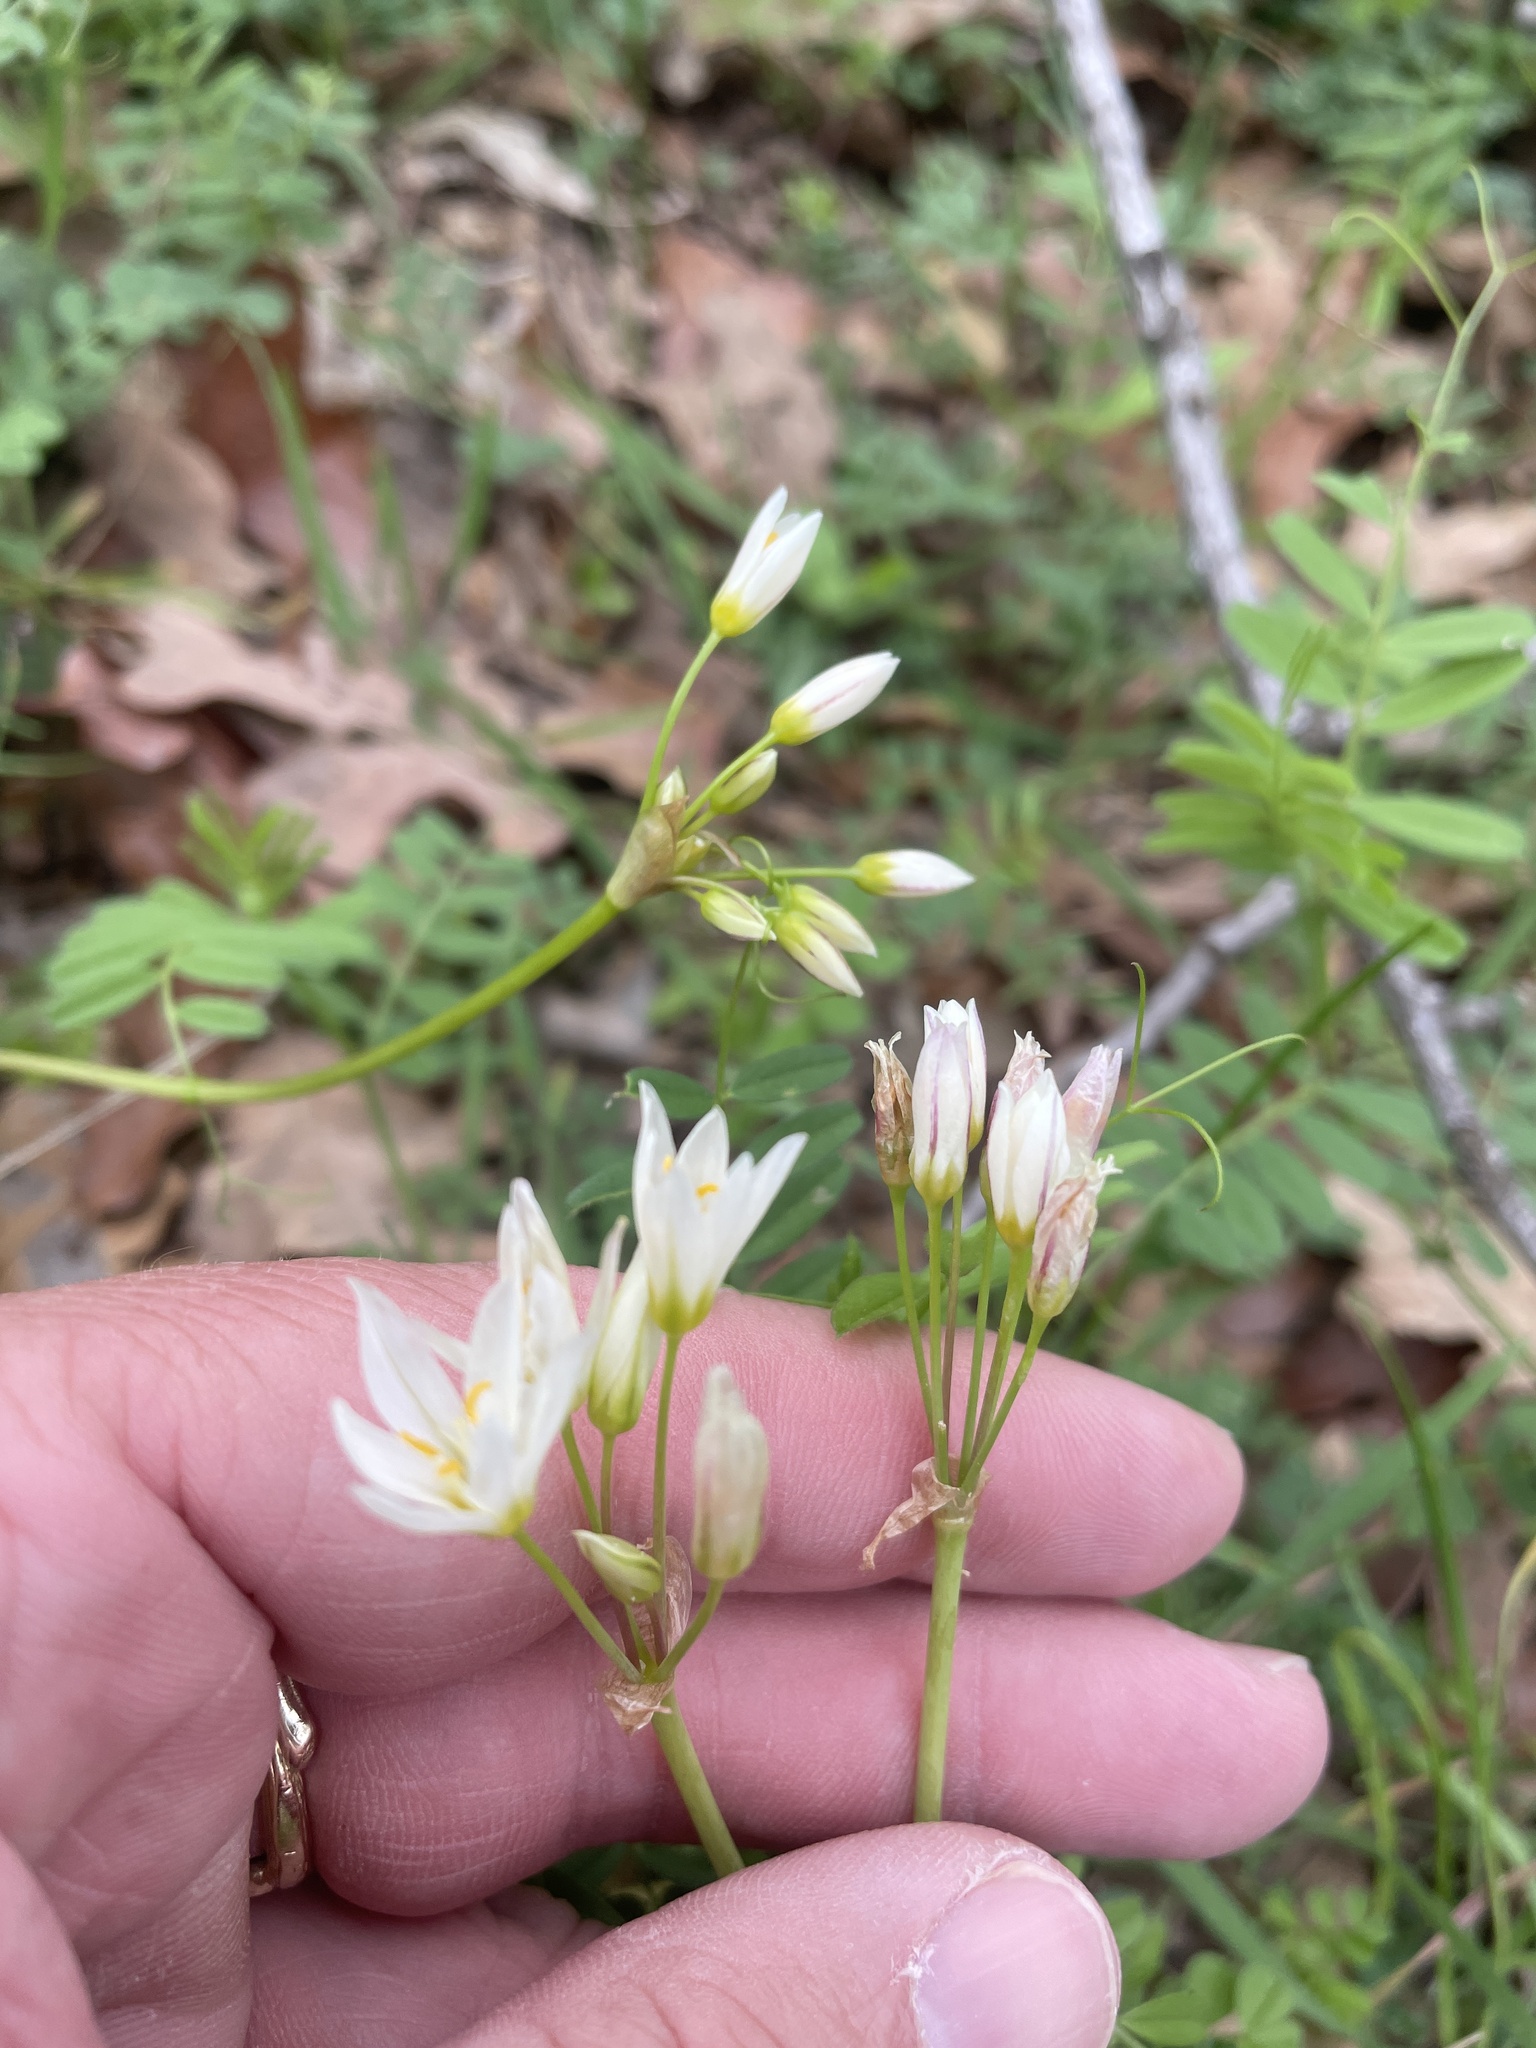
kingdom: Plantae
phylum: Tracheophyta
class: Liliopsida
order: Asparagales
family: Amaryllidaceae
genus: Nothoscordum
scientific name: Nothoscordum bivalve
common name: Crow-poison
